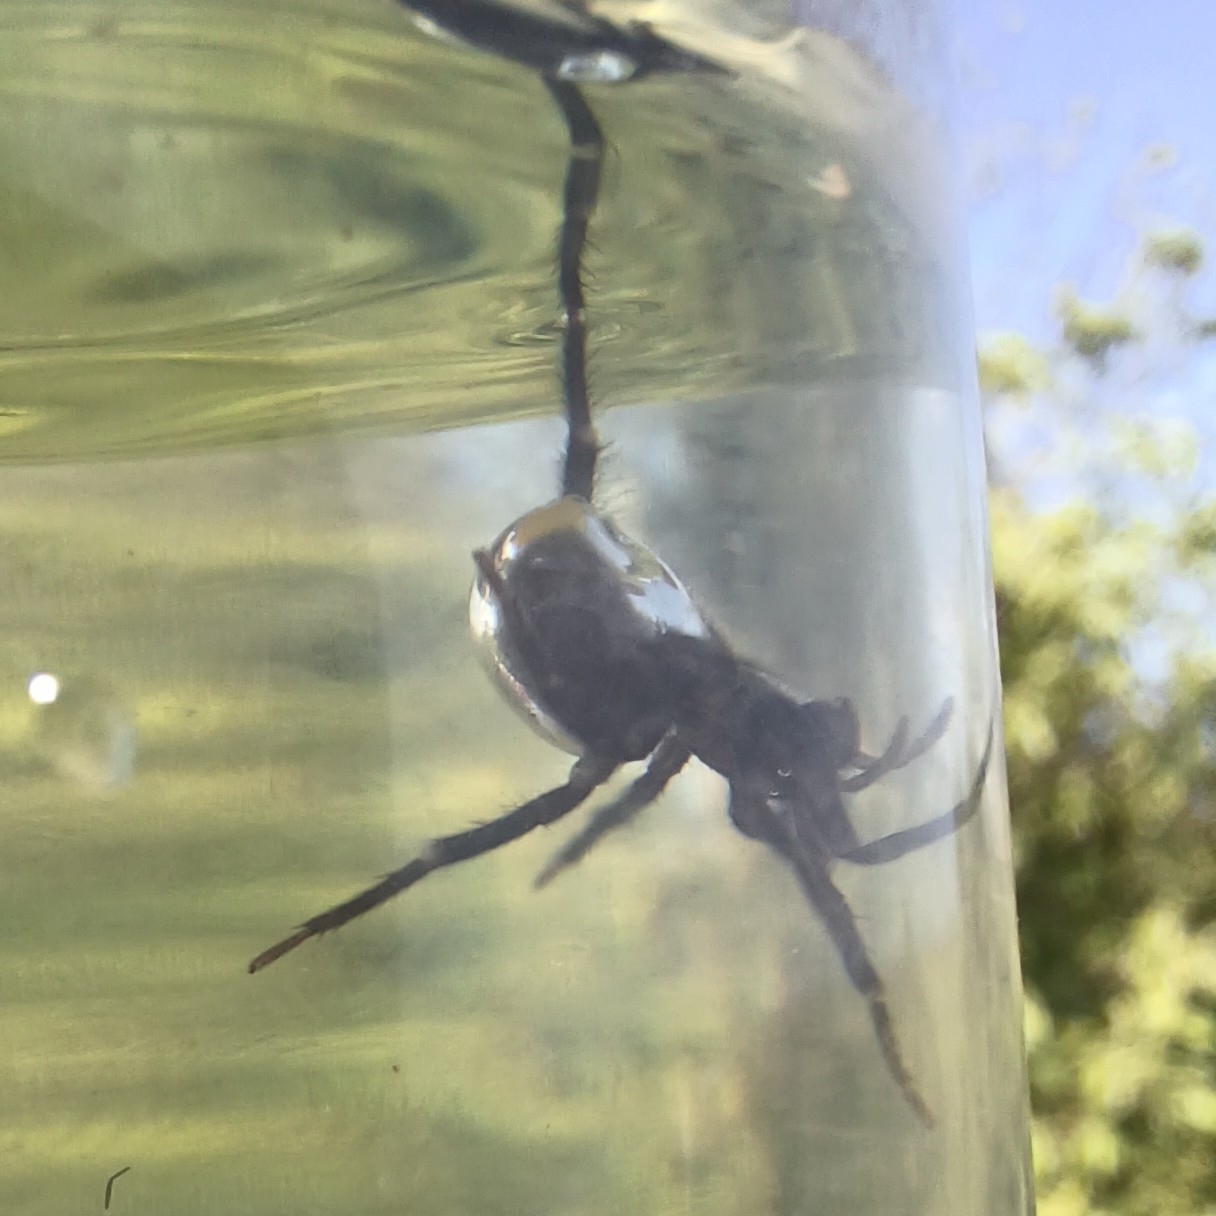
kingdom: Animalia
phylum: Arthropoda
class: Arachnida
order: Araneae
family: Dictynidae
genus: Argyroneta
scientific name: Argyroneta aquatica
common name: Water spider
